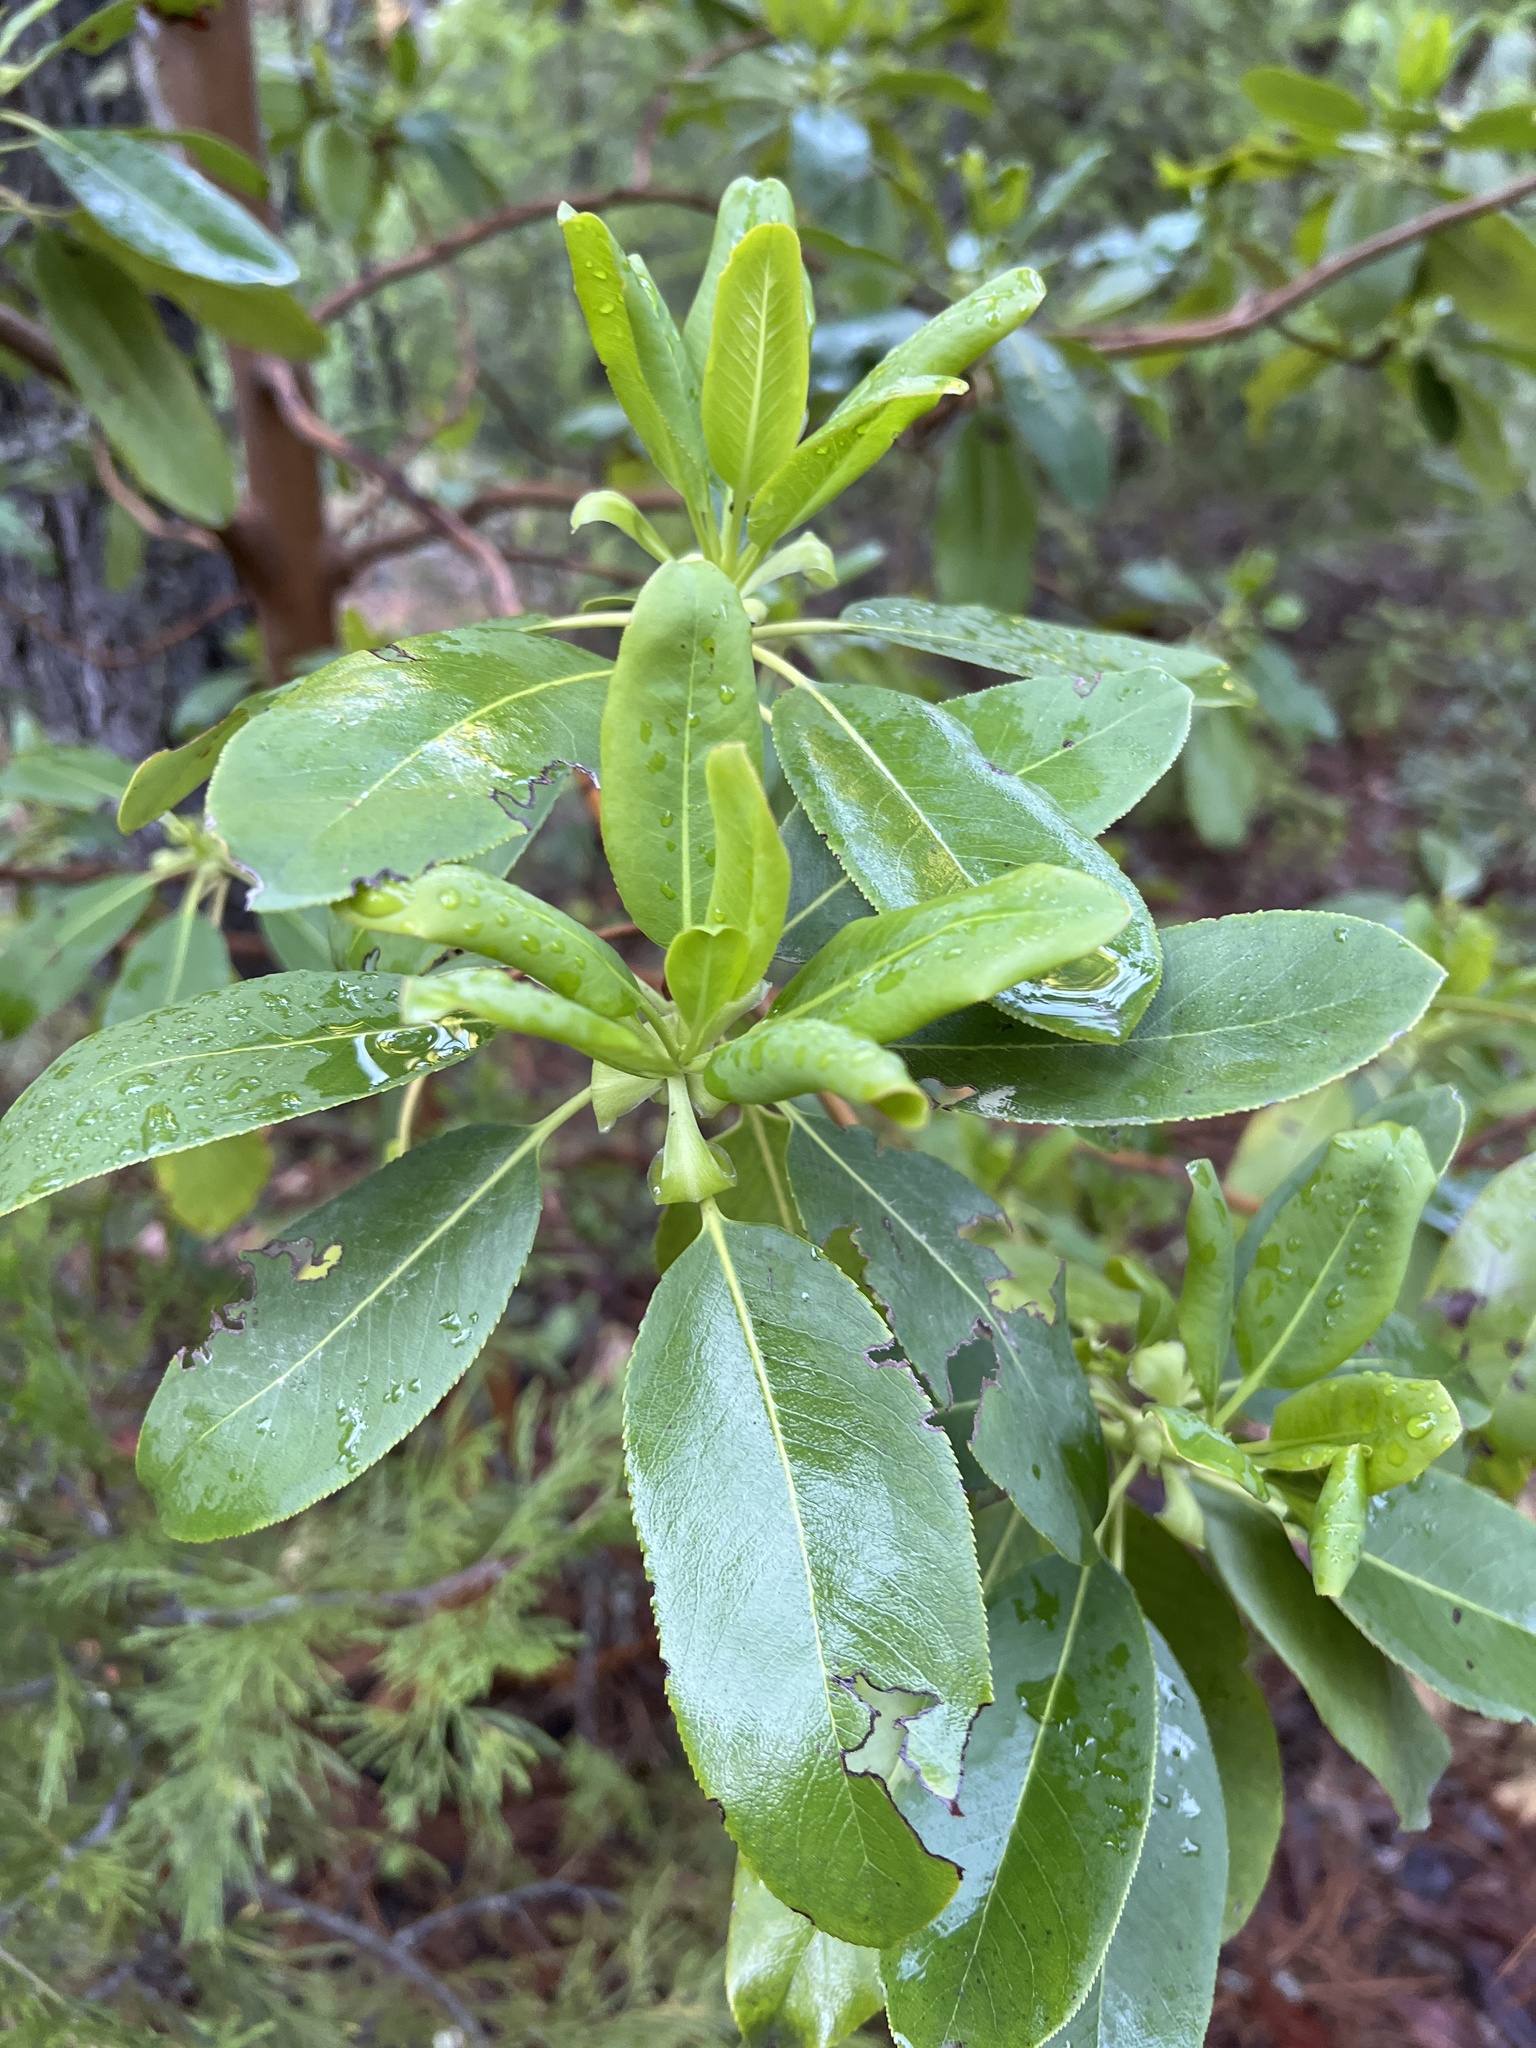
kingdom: Plantae
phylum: Tracheophyta
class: Magnoliopsida
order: Ericales
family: Ericaceae
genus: Arbutus
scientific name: Arbutus menziesii
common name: Pacific madrone
